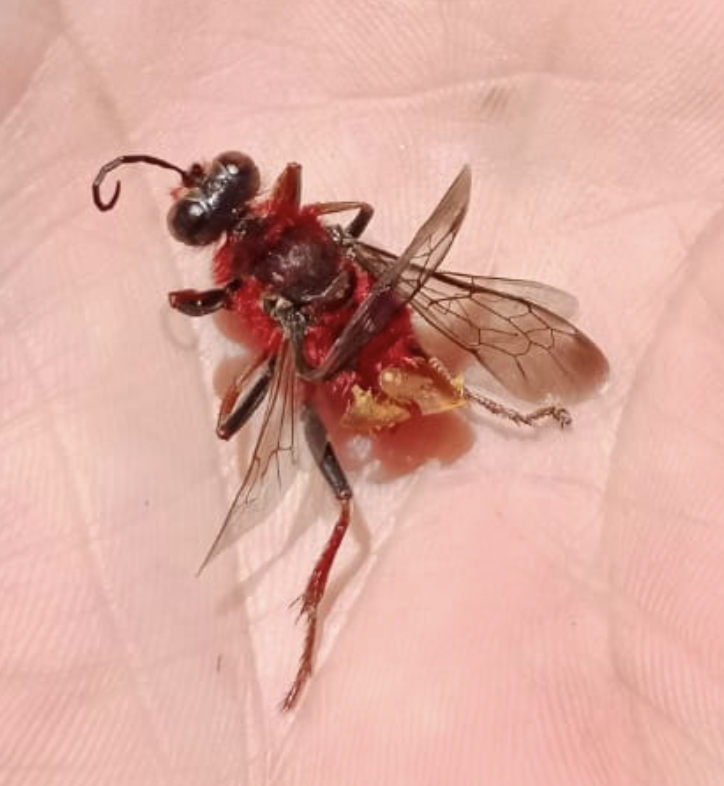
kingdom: Animalia
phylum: Arthropoda
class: Insecta
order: Hymenoptera
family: Sphecidae
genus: Sphex
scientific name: Sphex latreillei
